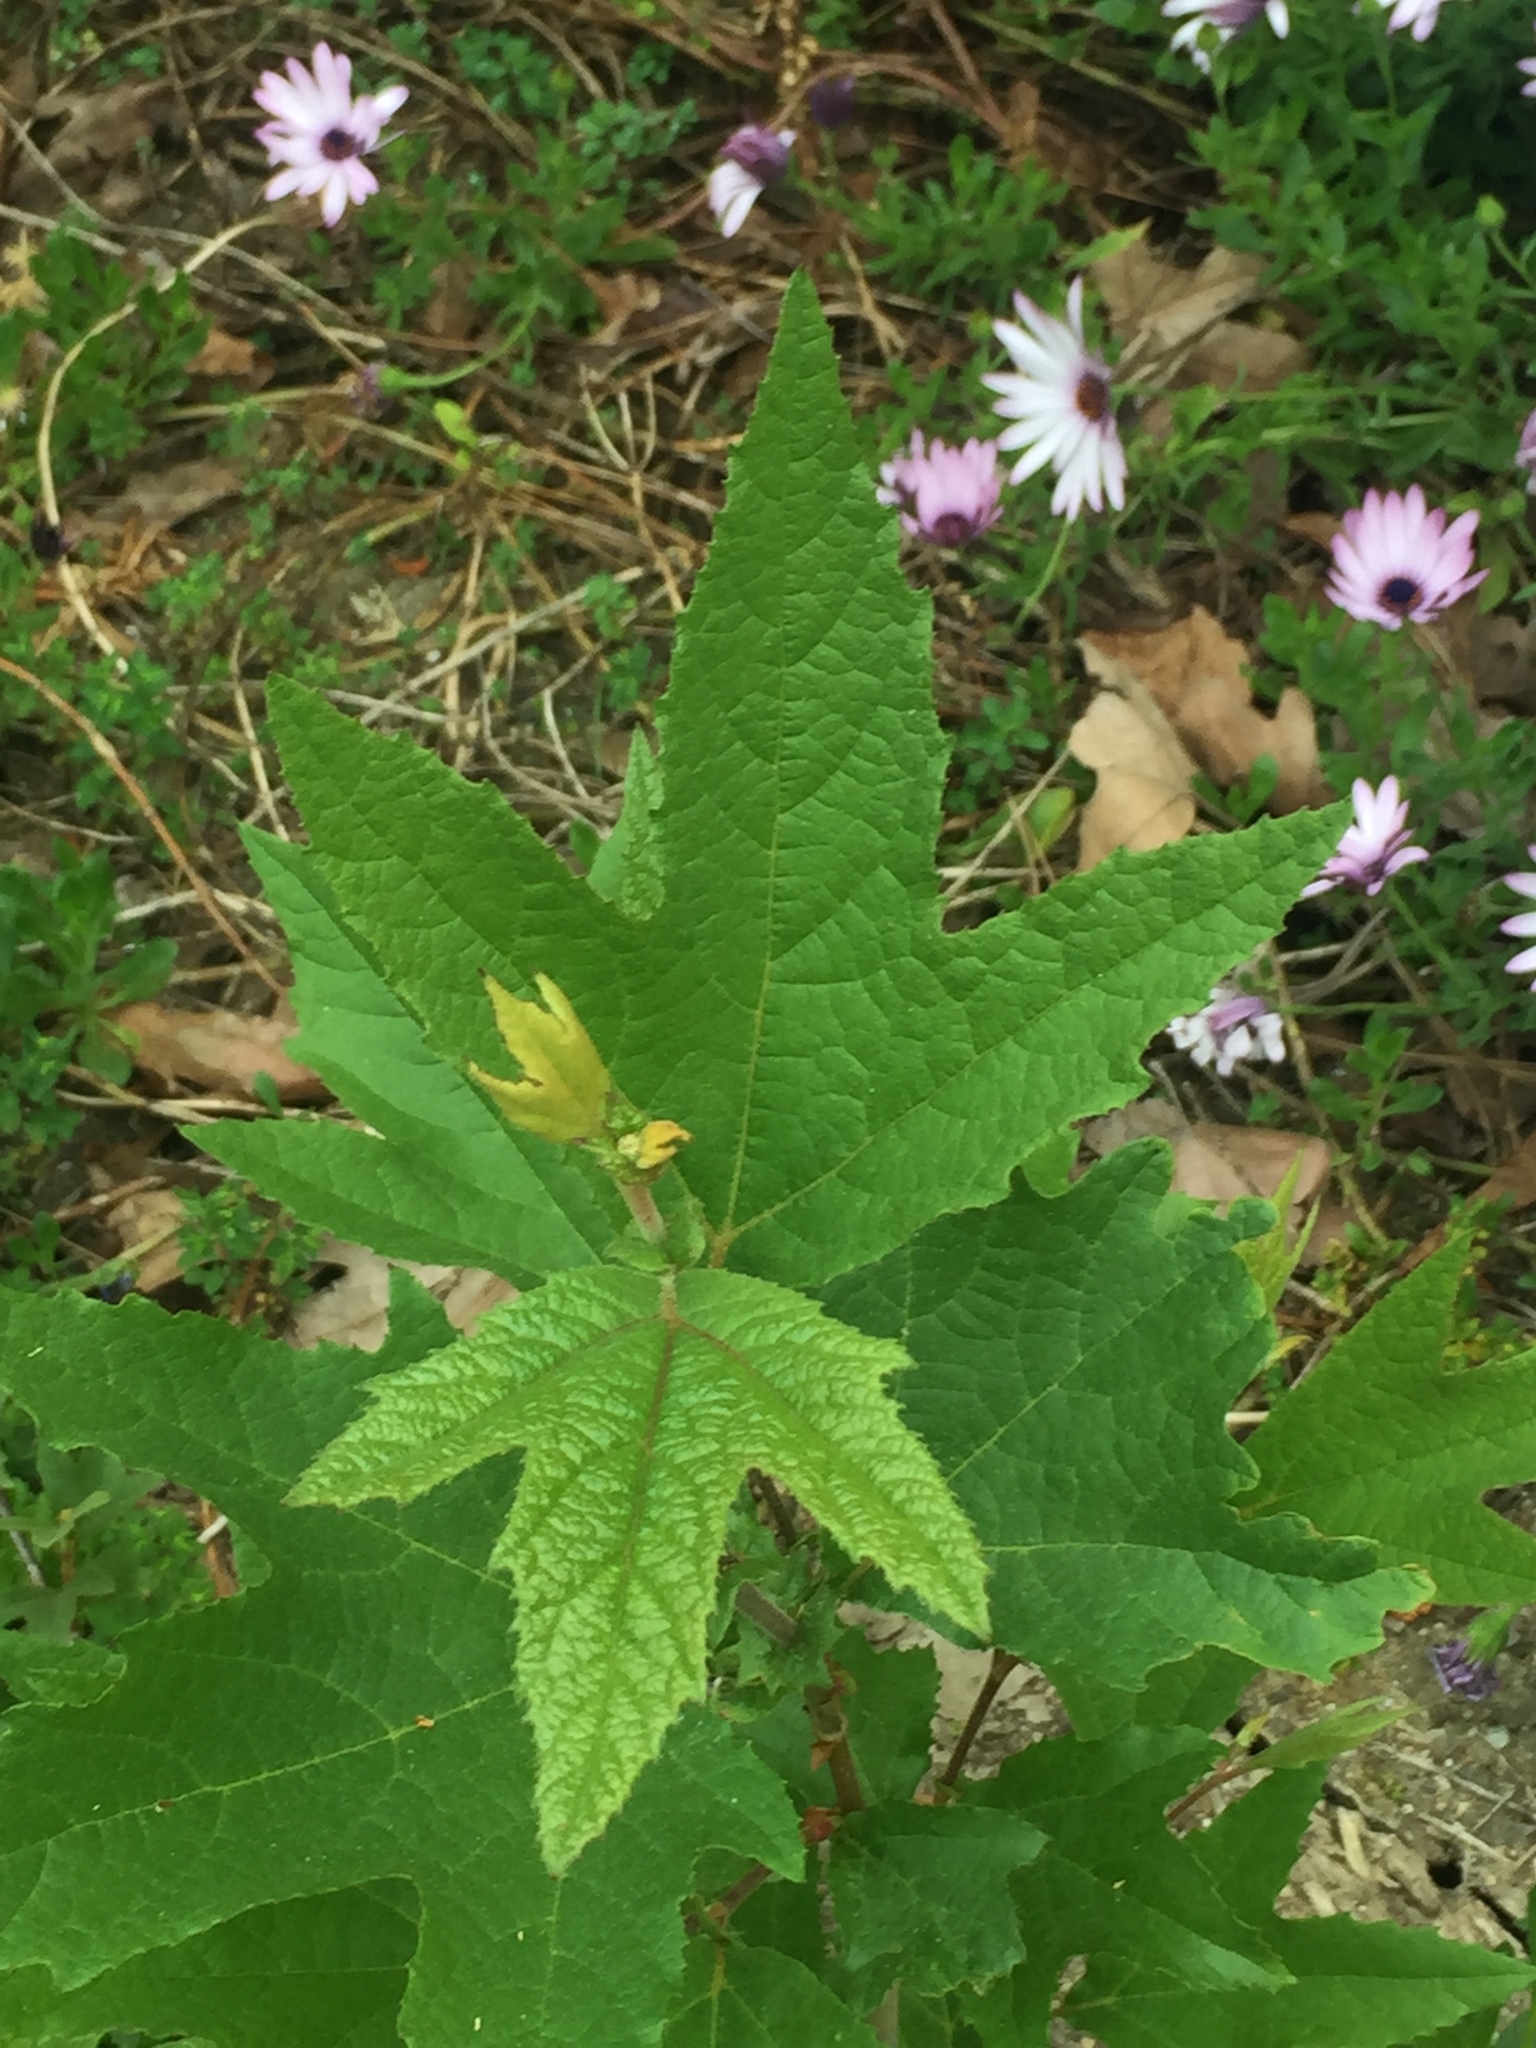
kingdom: Plantae
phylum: Tracheophyta
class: Magnoliopsida
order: Proteales
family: Platanaceae
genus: Platanus
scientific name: Platanus racemosa
